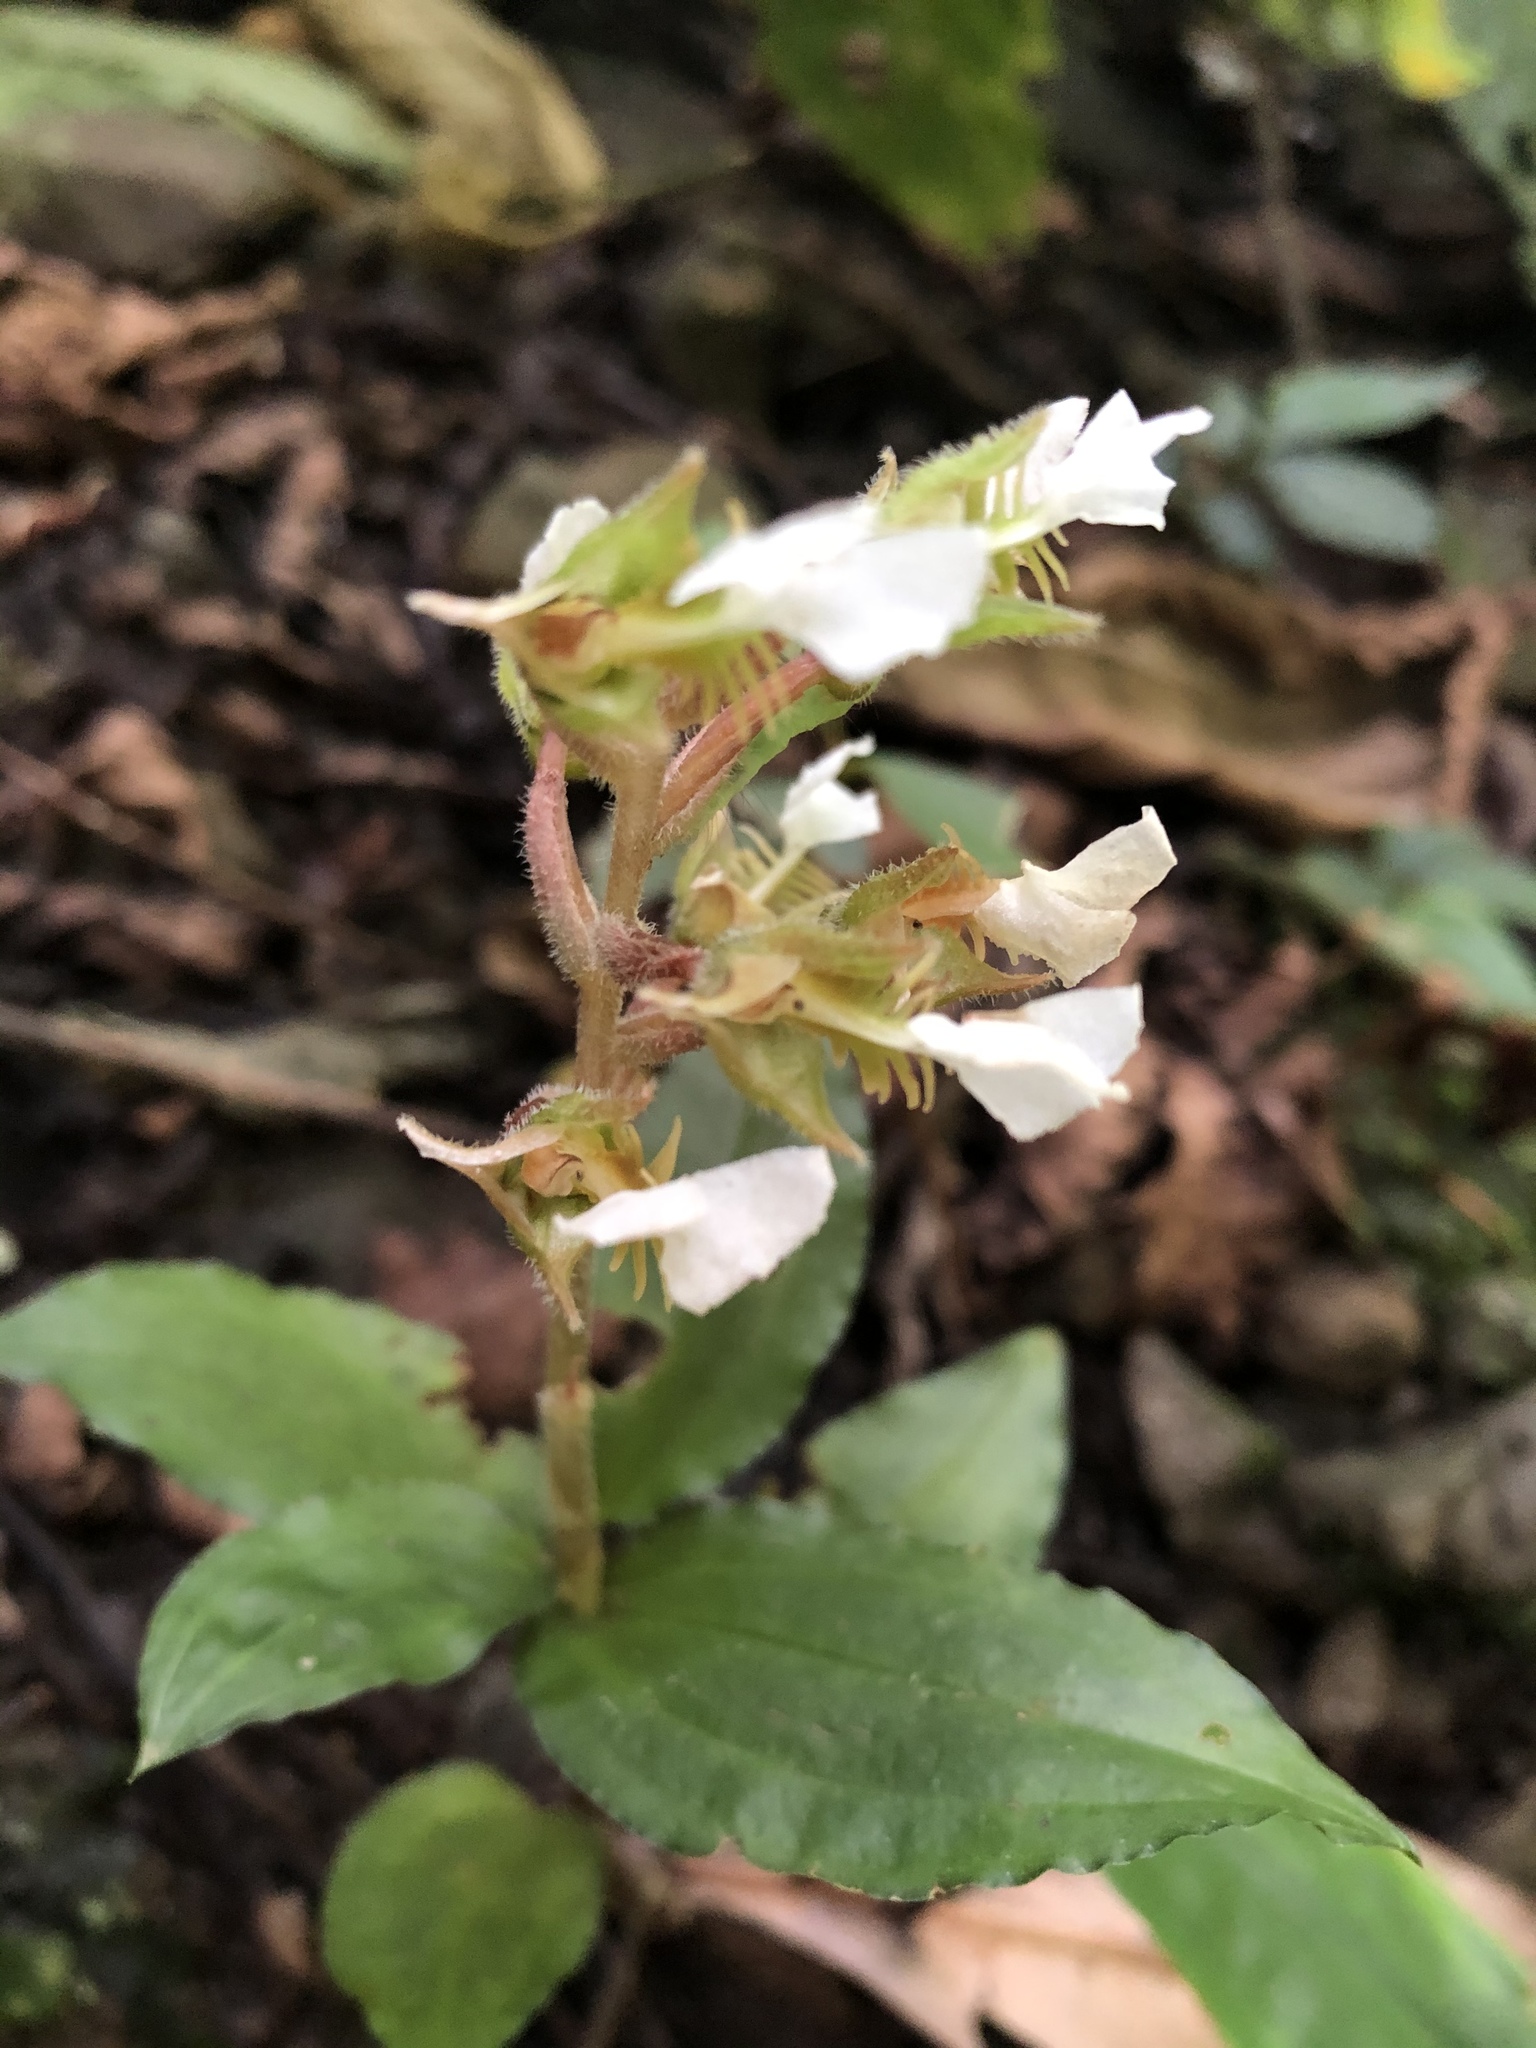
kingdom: Plantae
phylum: Tracheophyta
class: Liliopsida
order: Asparagales
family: Orchidaceae
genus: Odontochilus
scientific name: Odontochilus brevistylis
